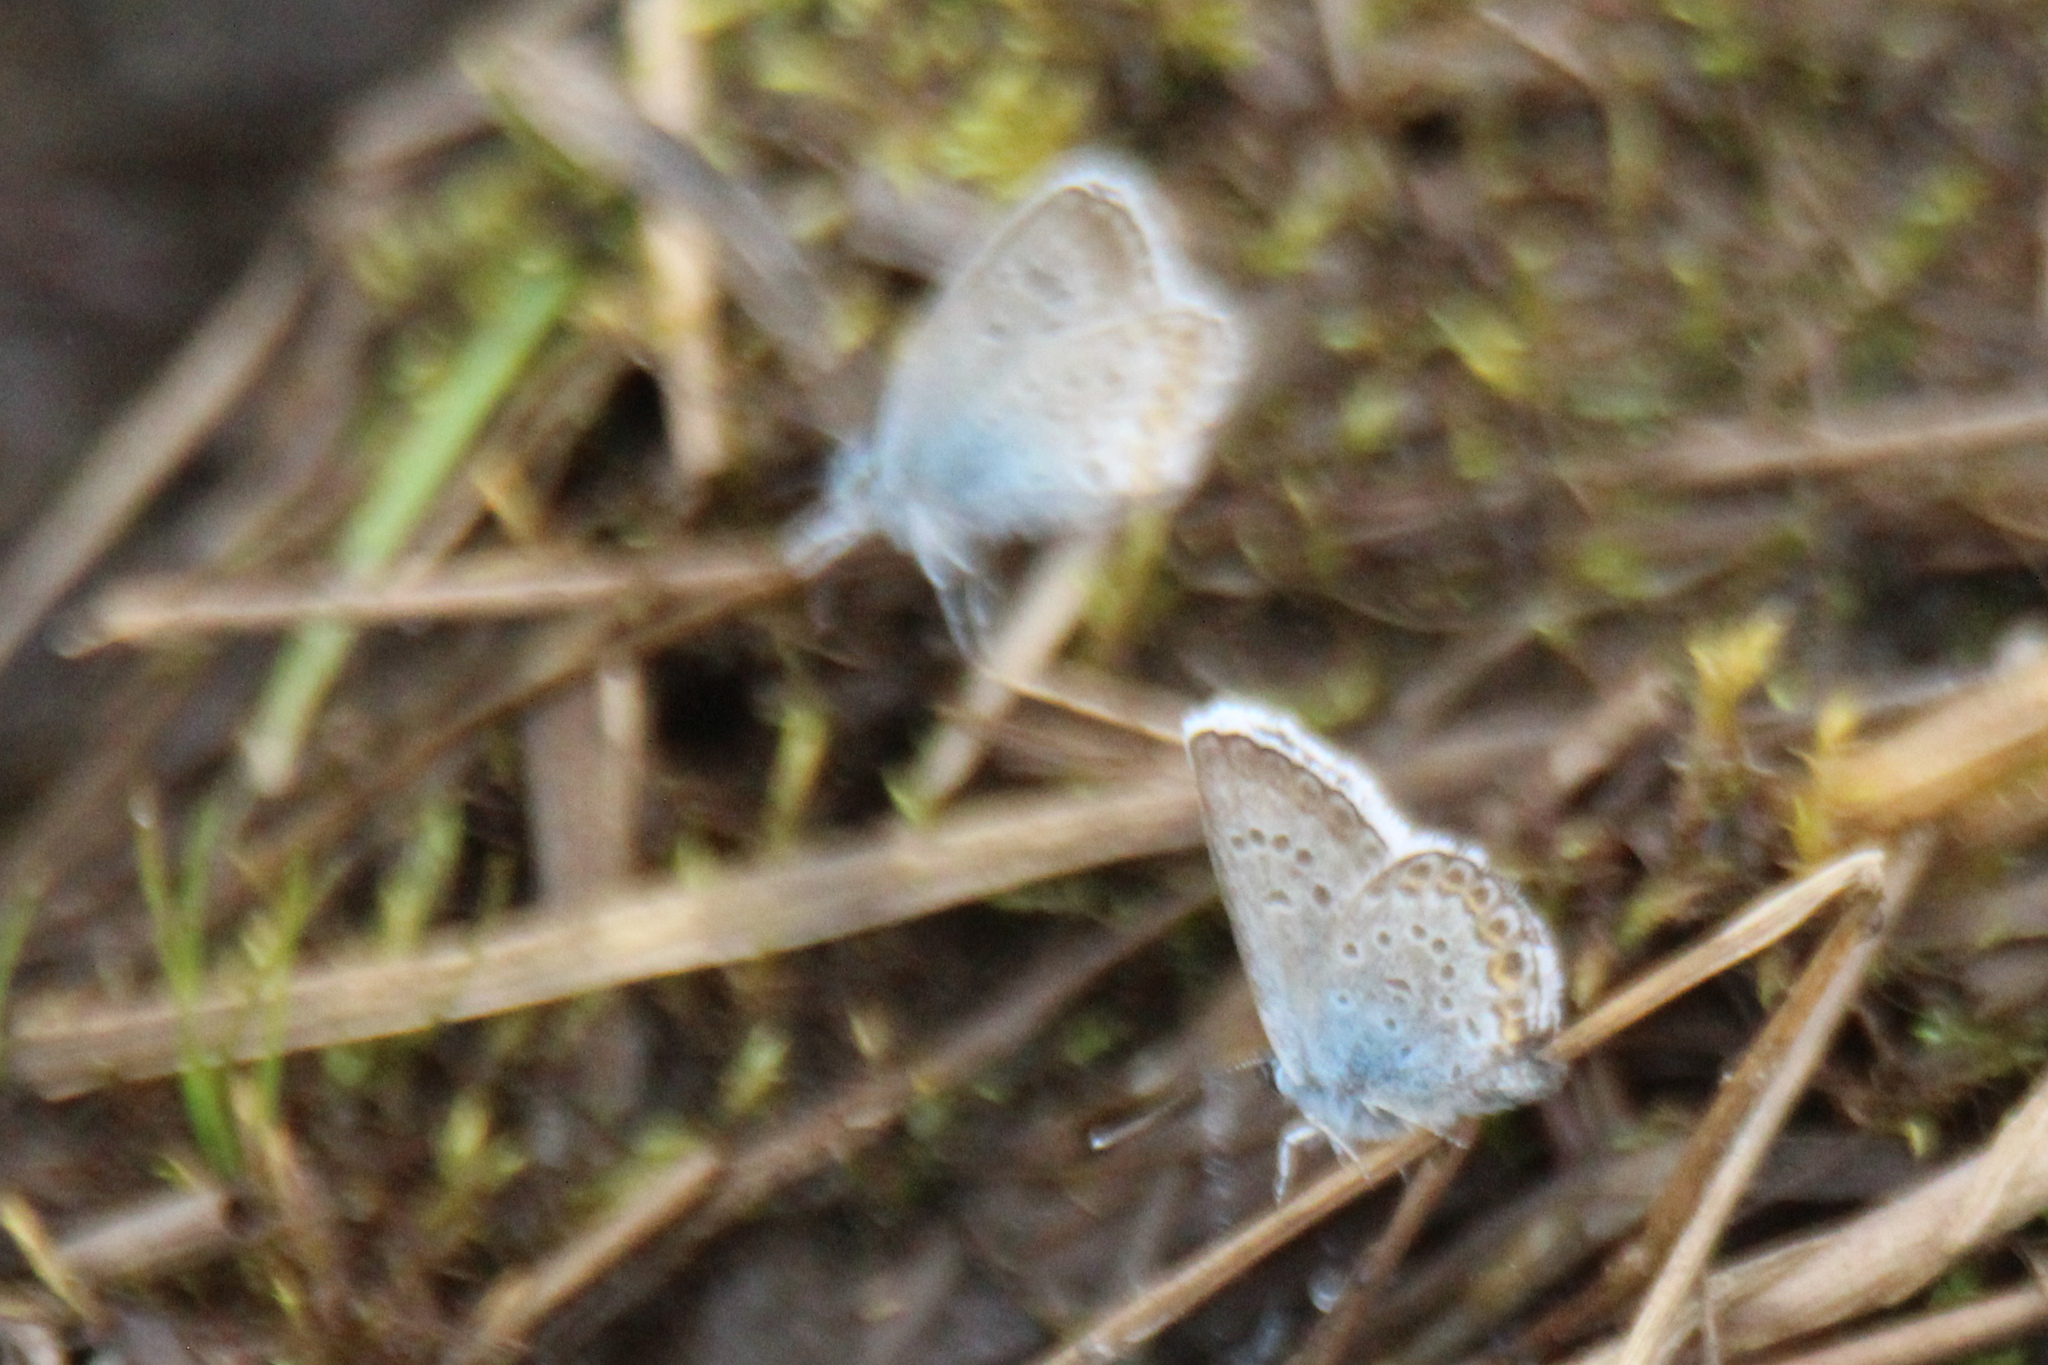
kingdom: Animalia
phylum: Arthropoda
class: Insecta
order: Lepidoptera
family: Lycaenidae
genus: Plebejus
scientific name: Plebejus argus
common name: Silver-studded blue
